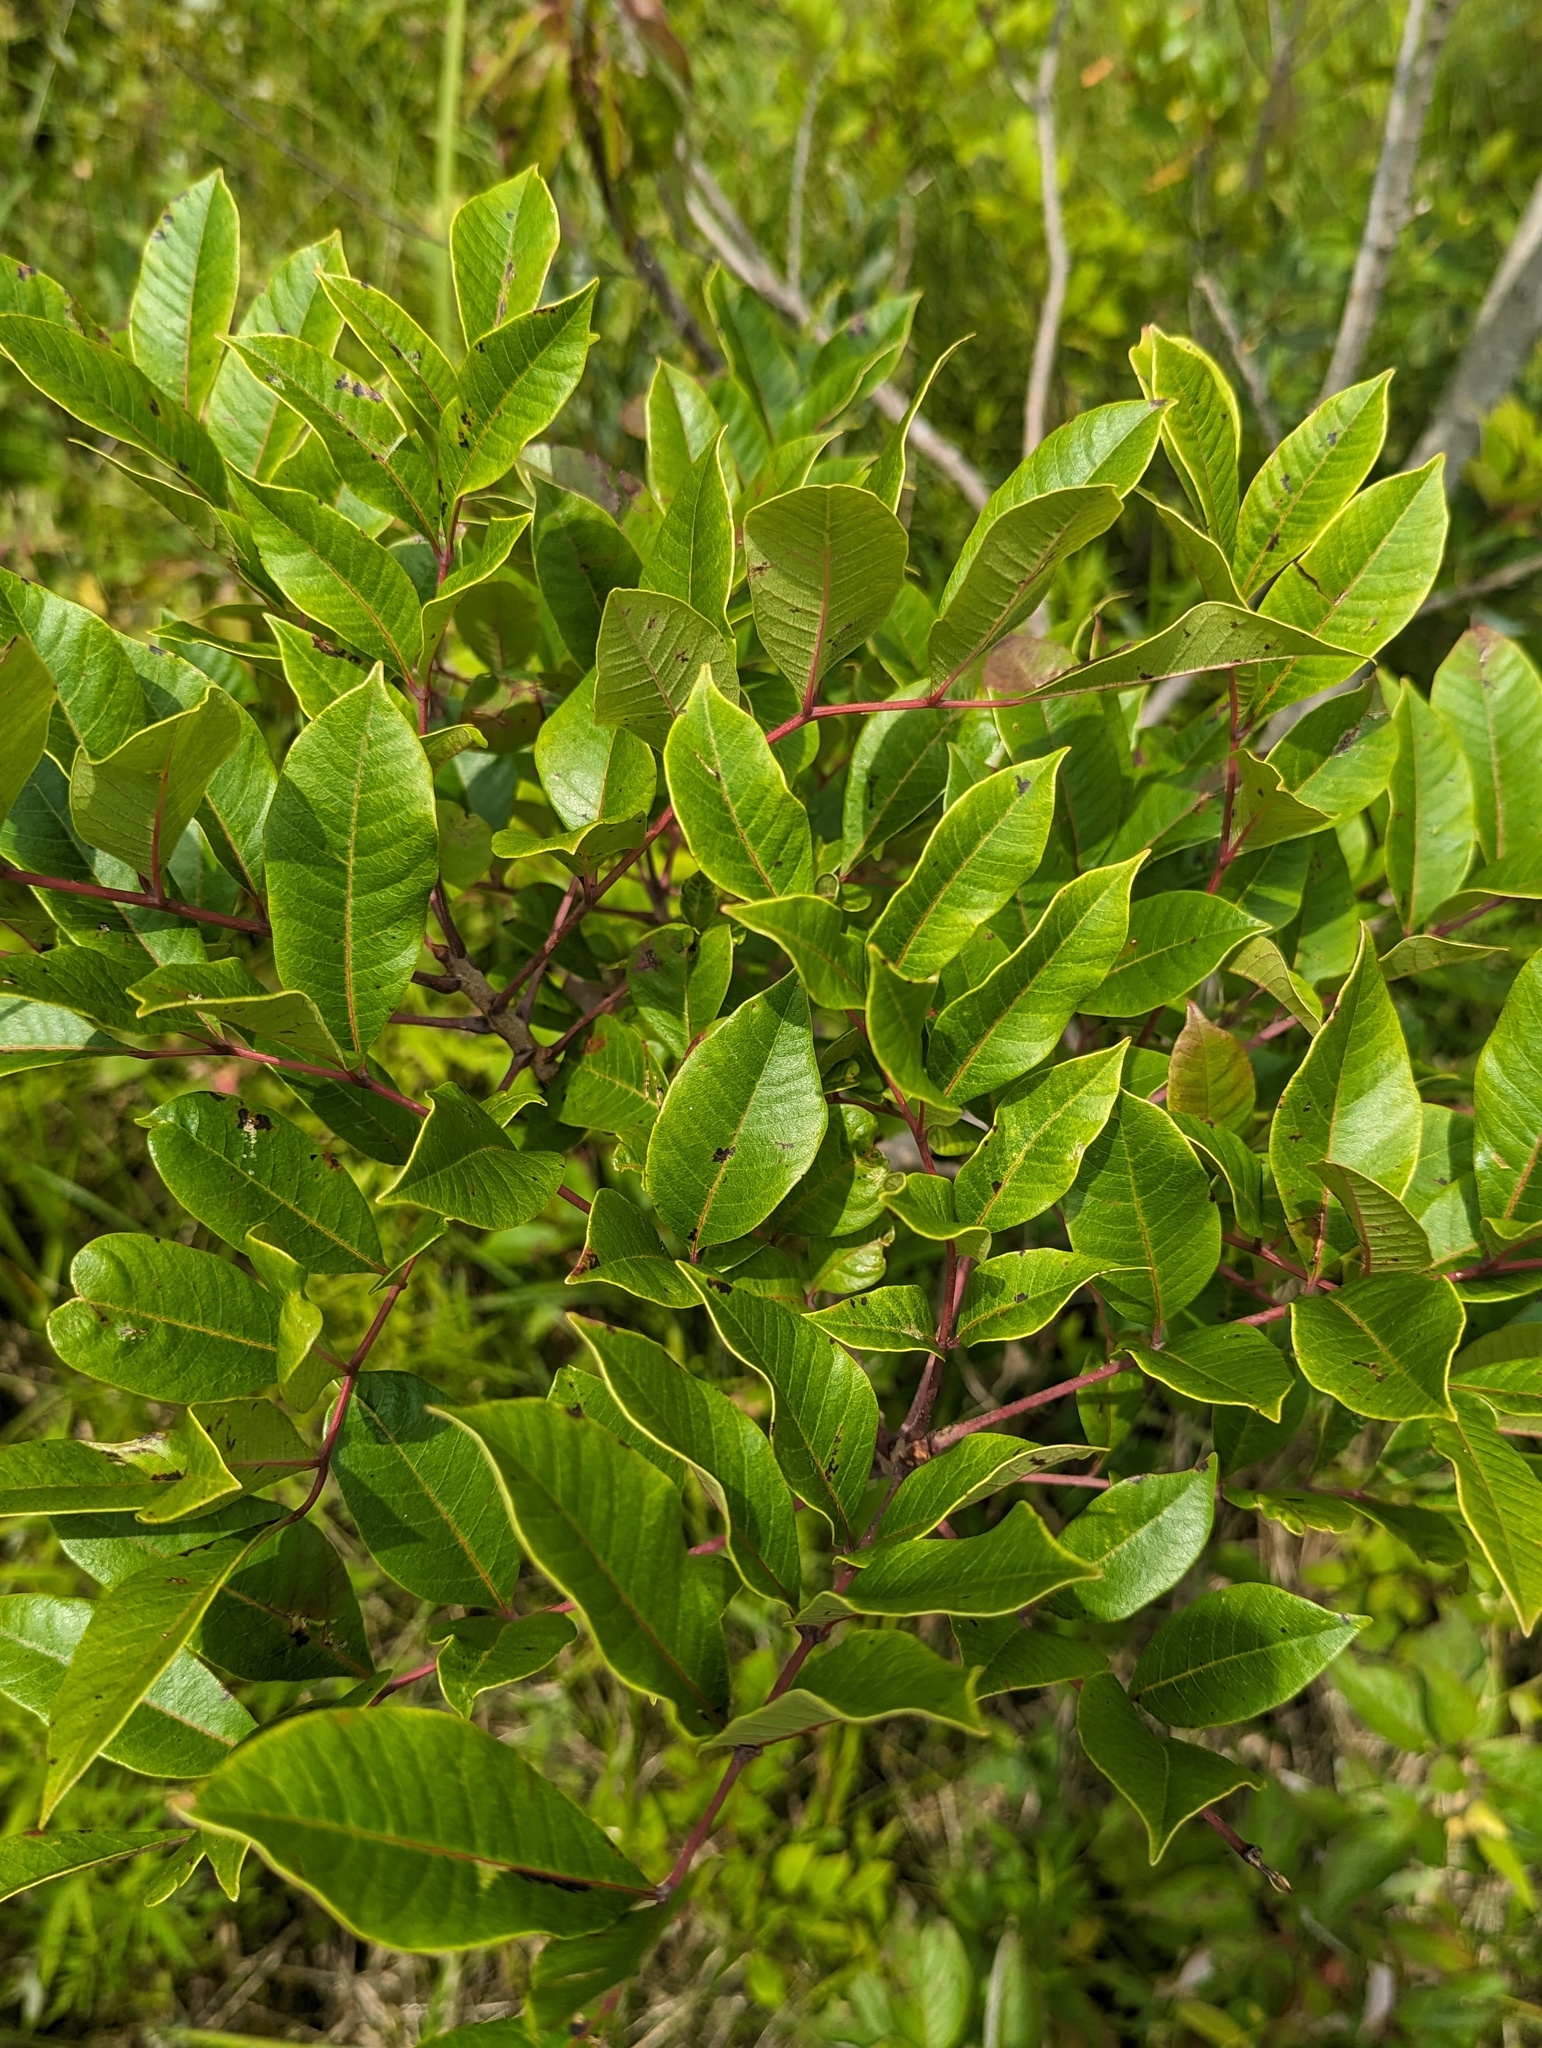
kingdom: Plantae
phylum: Tracheophyta
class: Magnoliopsida
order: Sapindales
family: Anacardiaceae
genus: Toxicodendron
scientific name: Toxicodendron vernix
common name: Poison sumac
